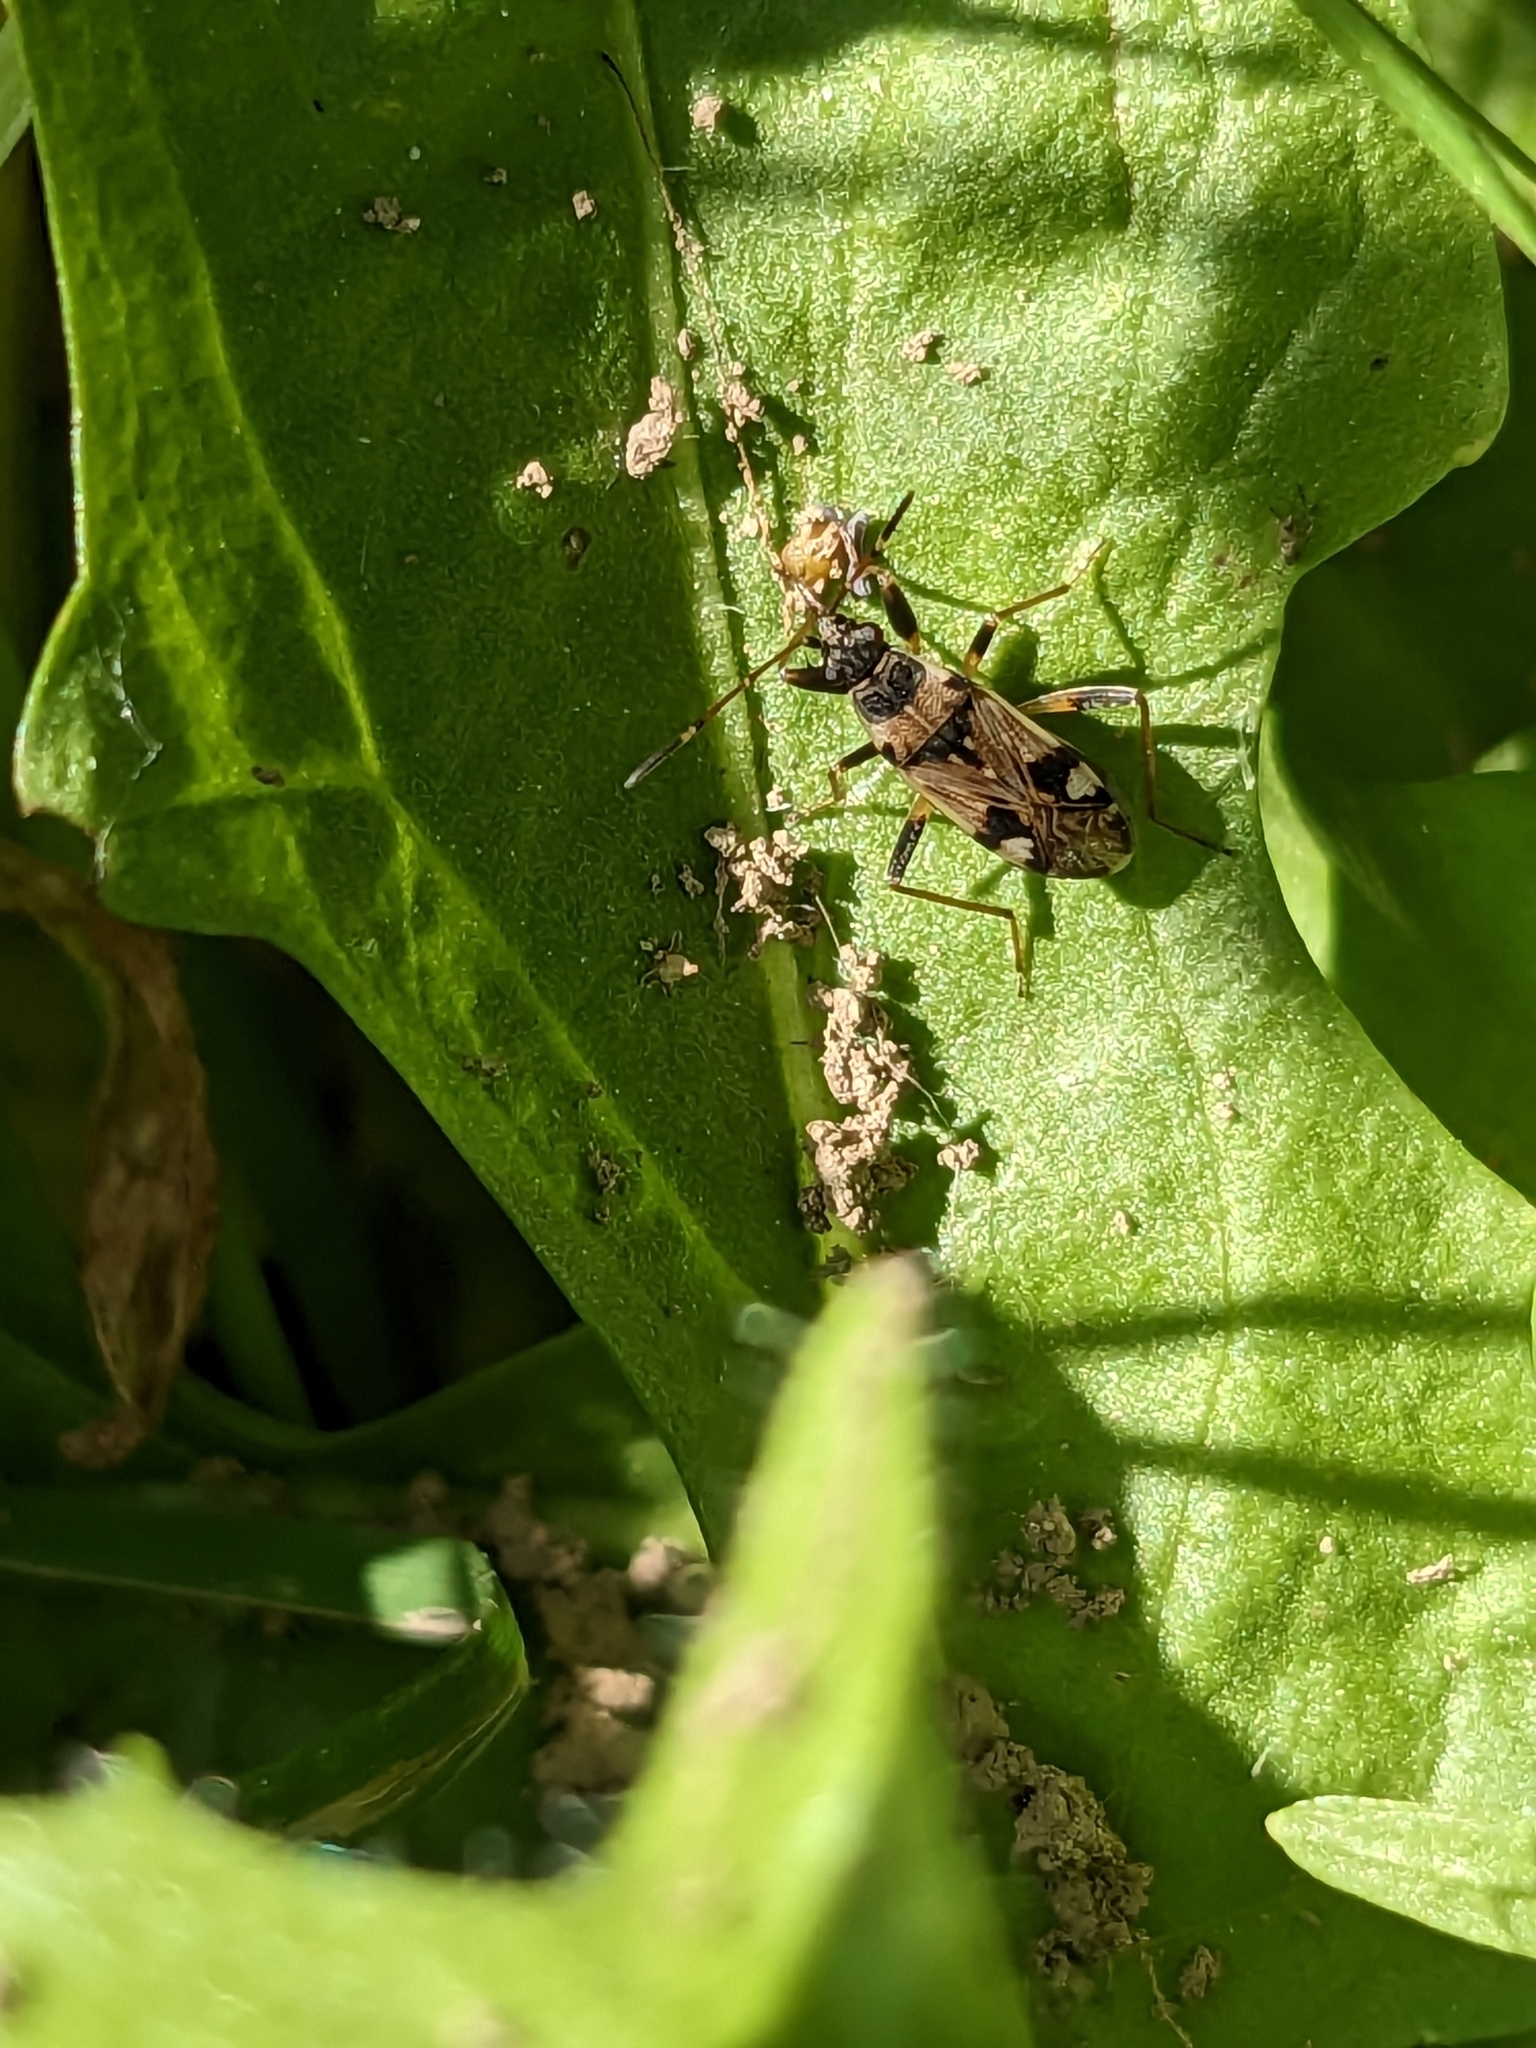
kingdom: Animalia
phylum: Arthropoda
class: Insecta
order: Hemiptera
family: Rhyparochromidae
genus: Beosus
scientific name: Beosus maritimus
